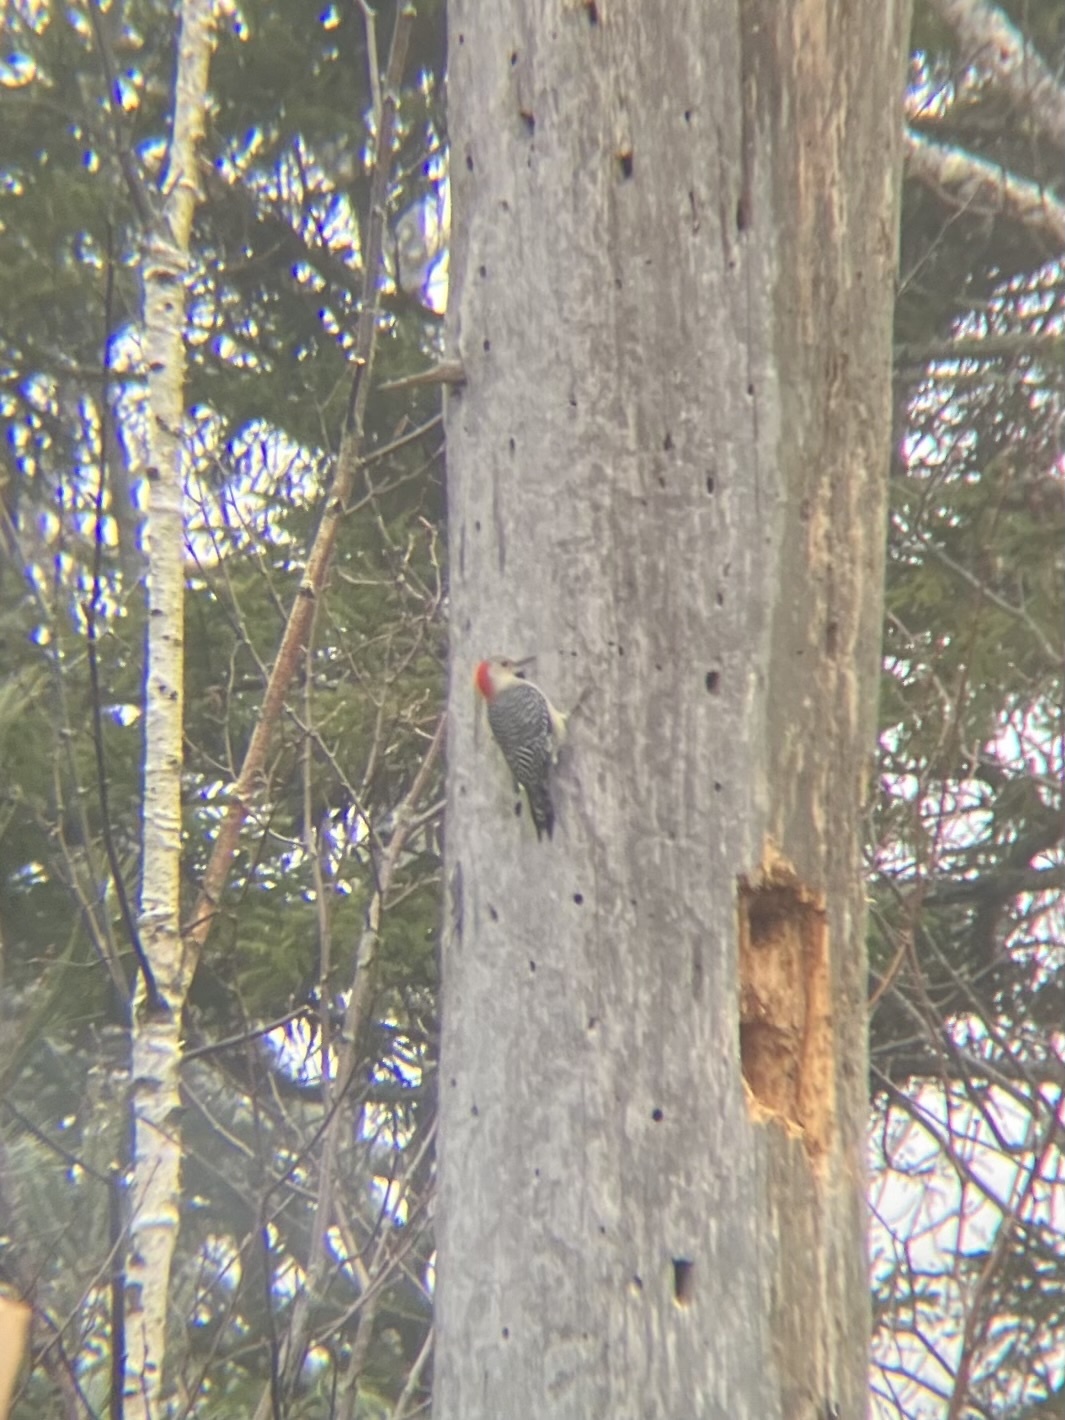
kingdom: Animalia
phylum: Chordata
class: Aves
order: Piciformes
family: Picidae
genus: Melanerpes
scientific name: Melanerpes carolinus
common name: Red-bellied woodpecker
